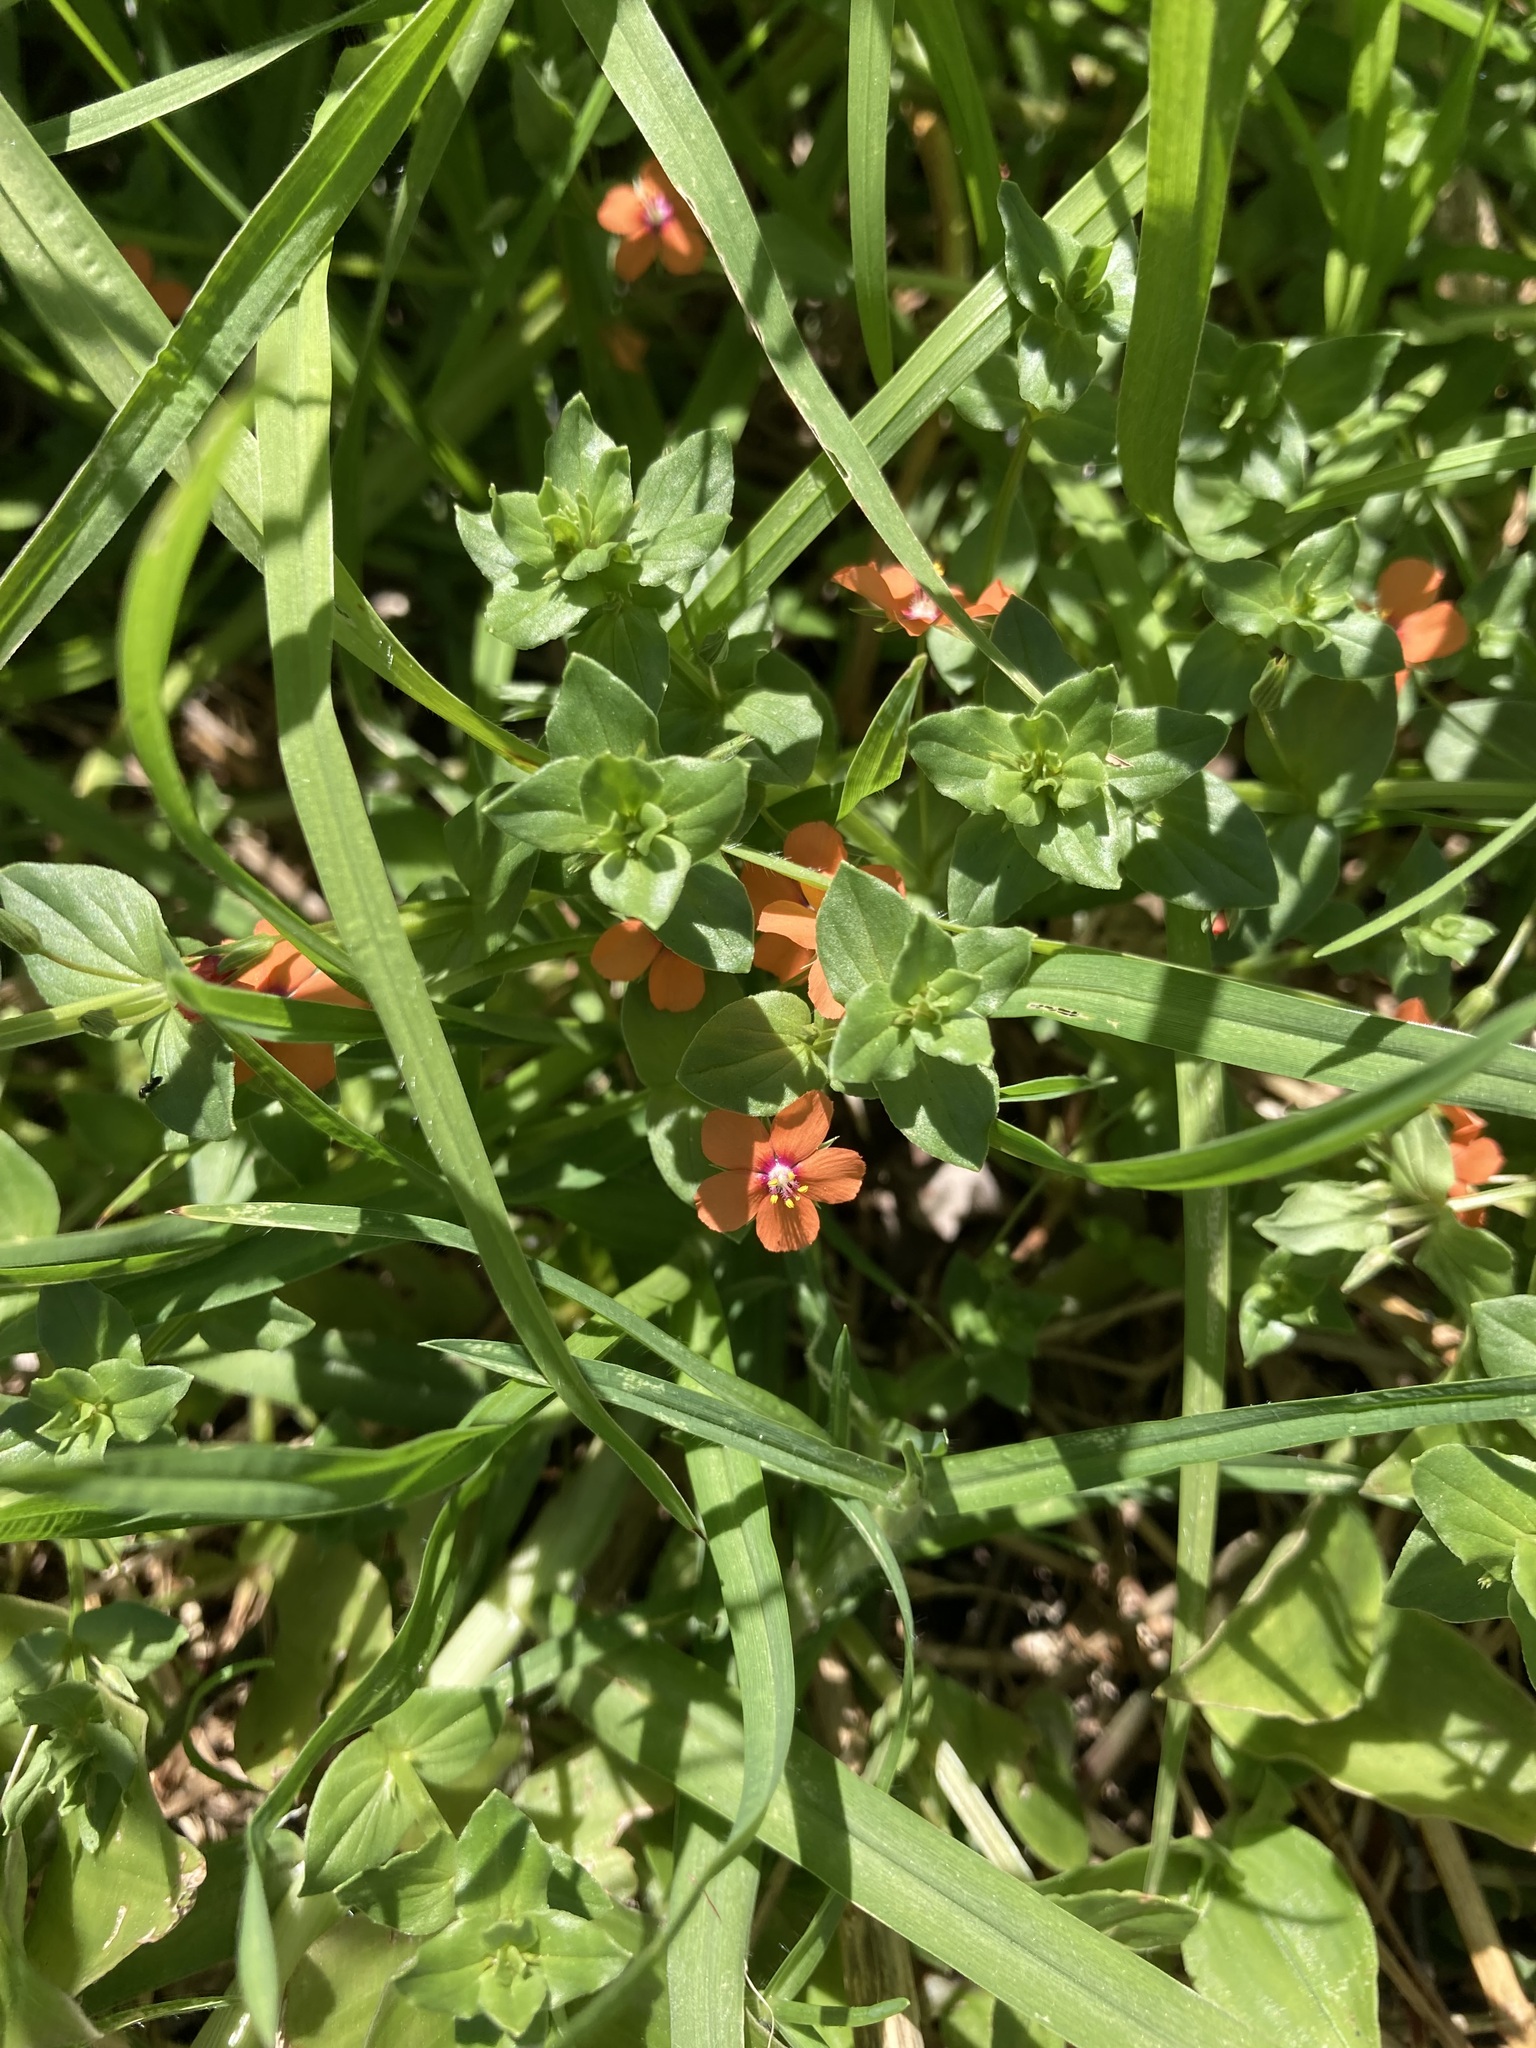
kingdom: Plantae
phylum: Tracheophyta
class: Magnoliopsida
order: Ericales
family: Primulaceae
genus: Lysimachia
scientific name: Lysimachia arvensis
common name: Scarlet pimpernel
